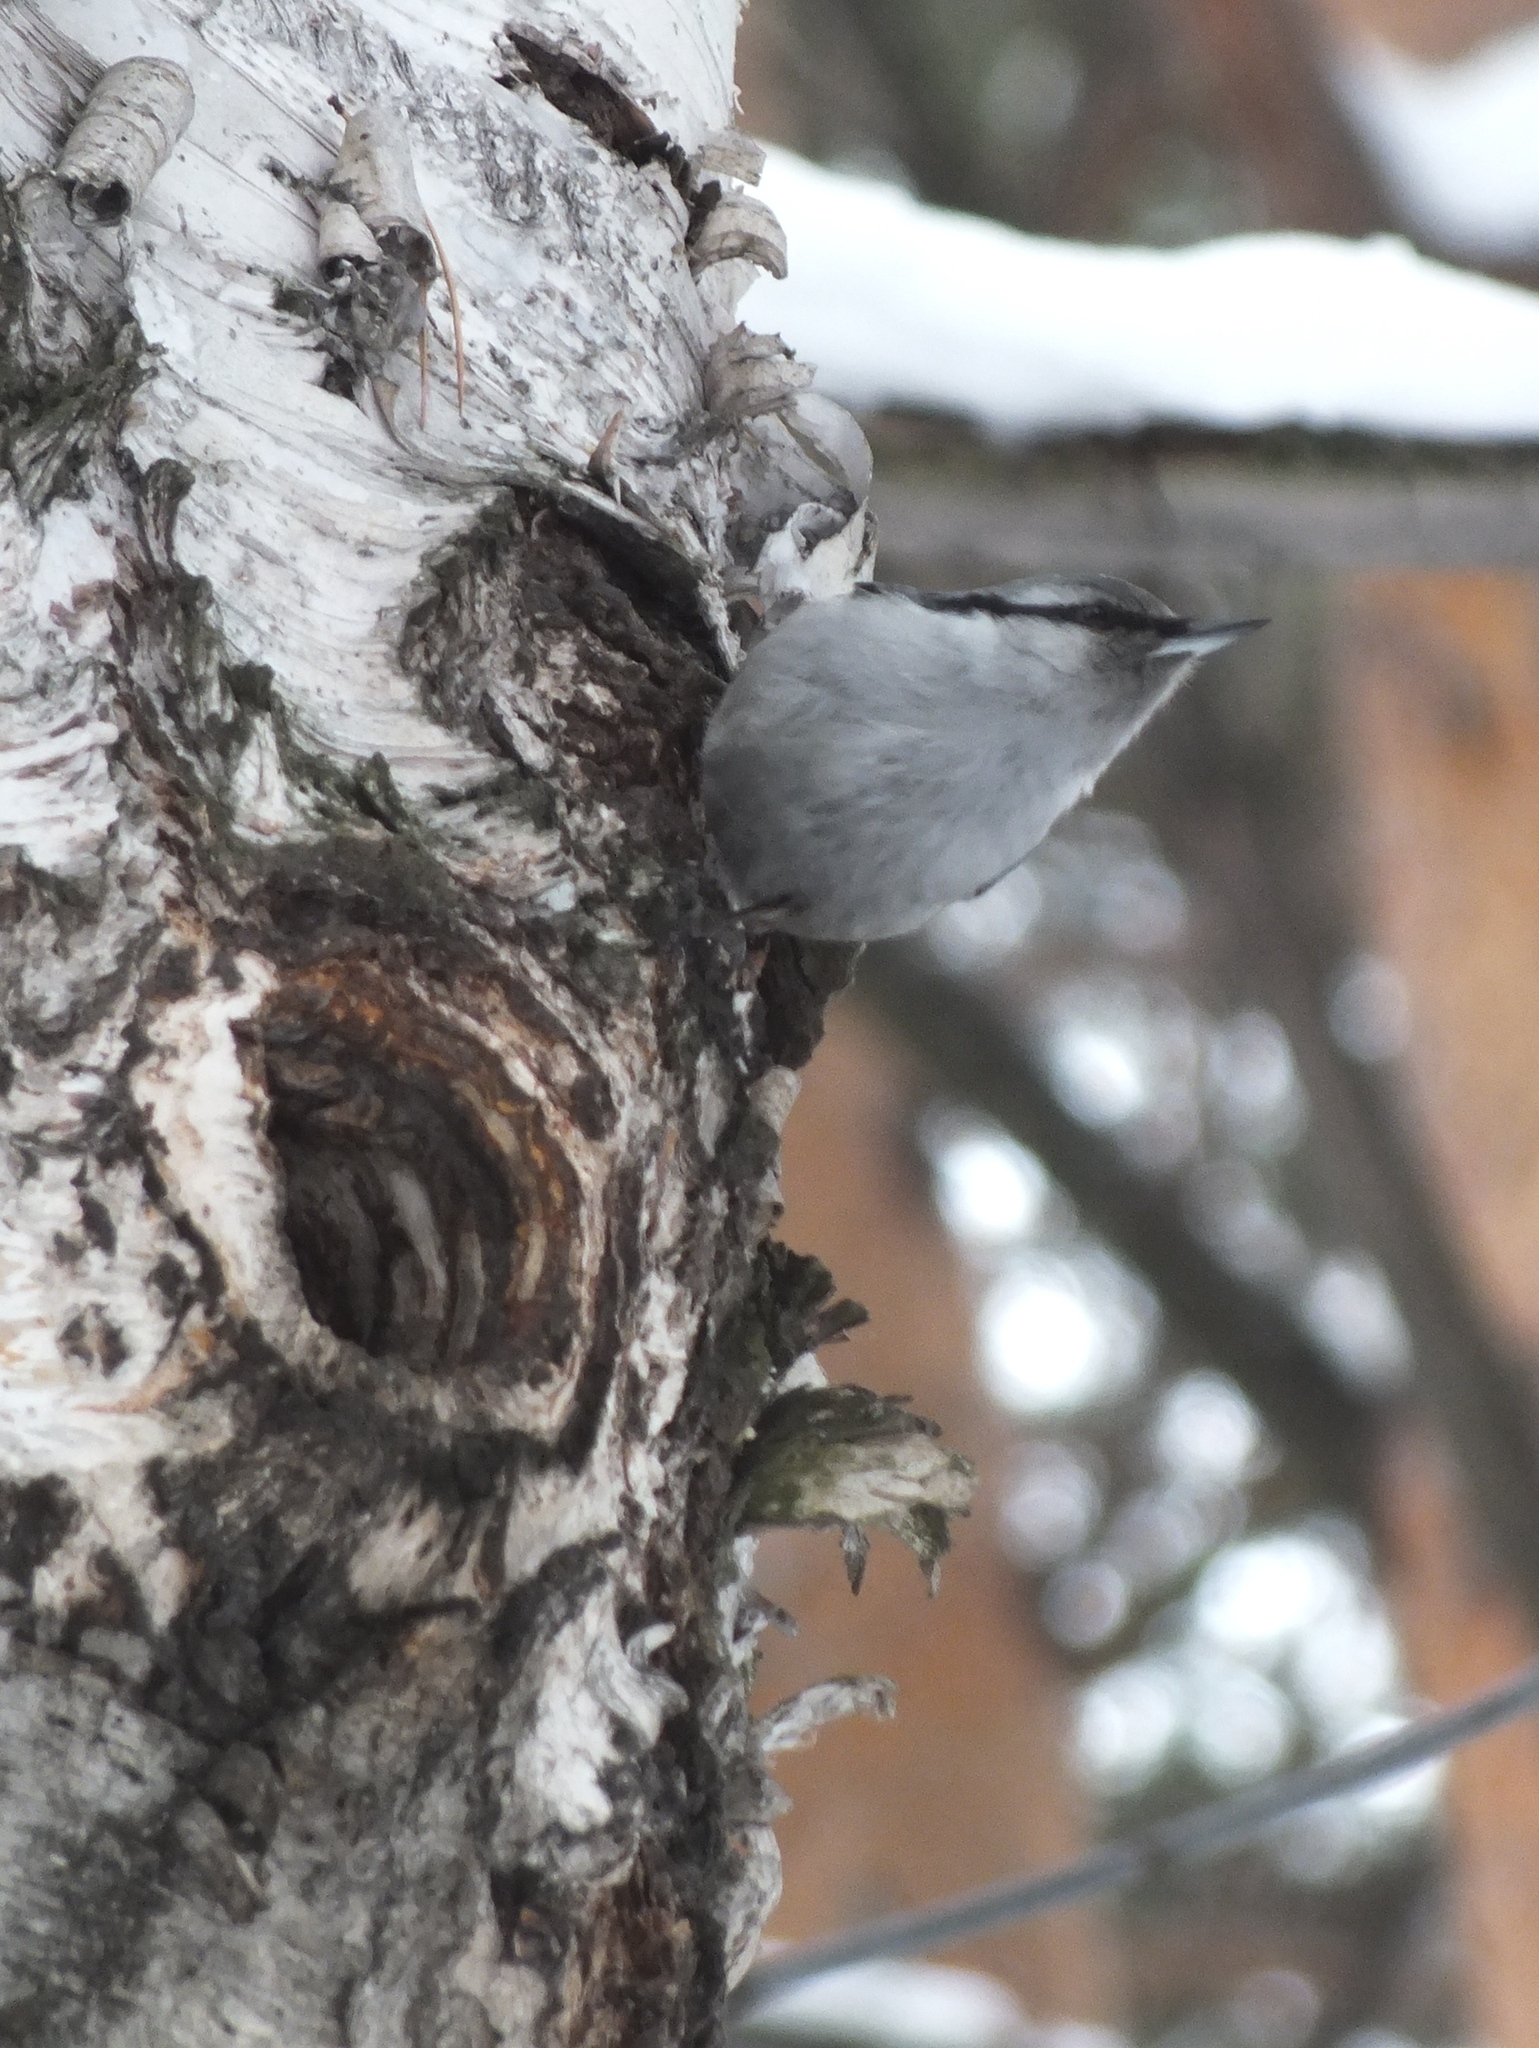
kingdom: Animalia
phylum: Chordata
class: Aves
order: Passeriformes
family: Sittidae
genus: Sitta
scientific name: Sitta europaea
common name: Eurasian nuthatch
